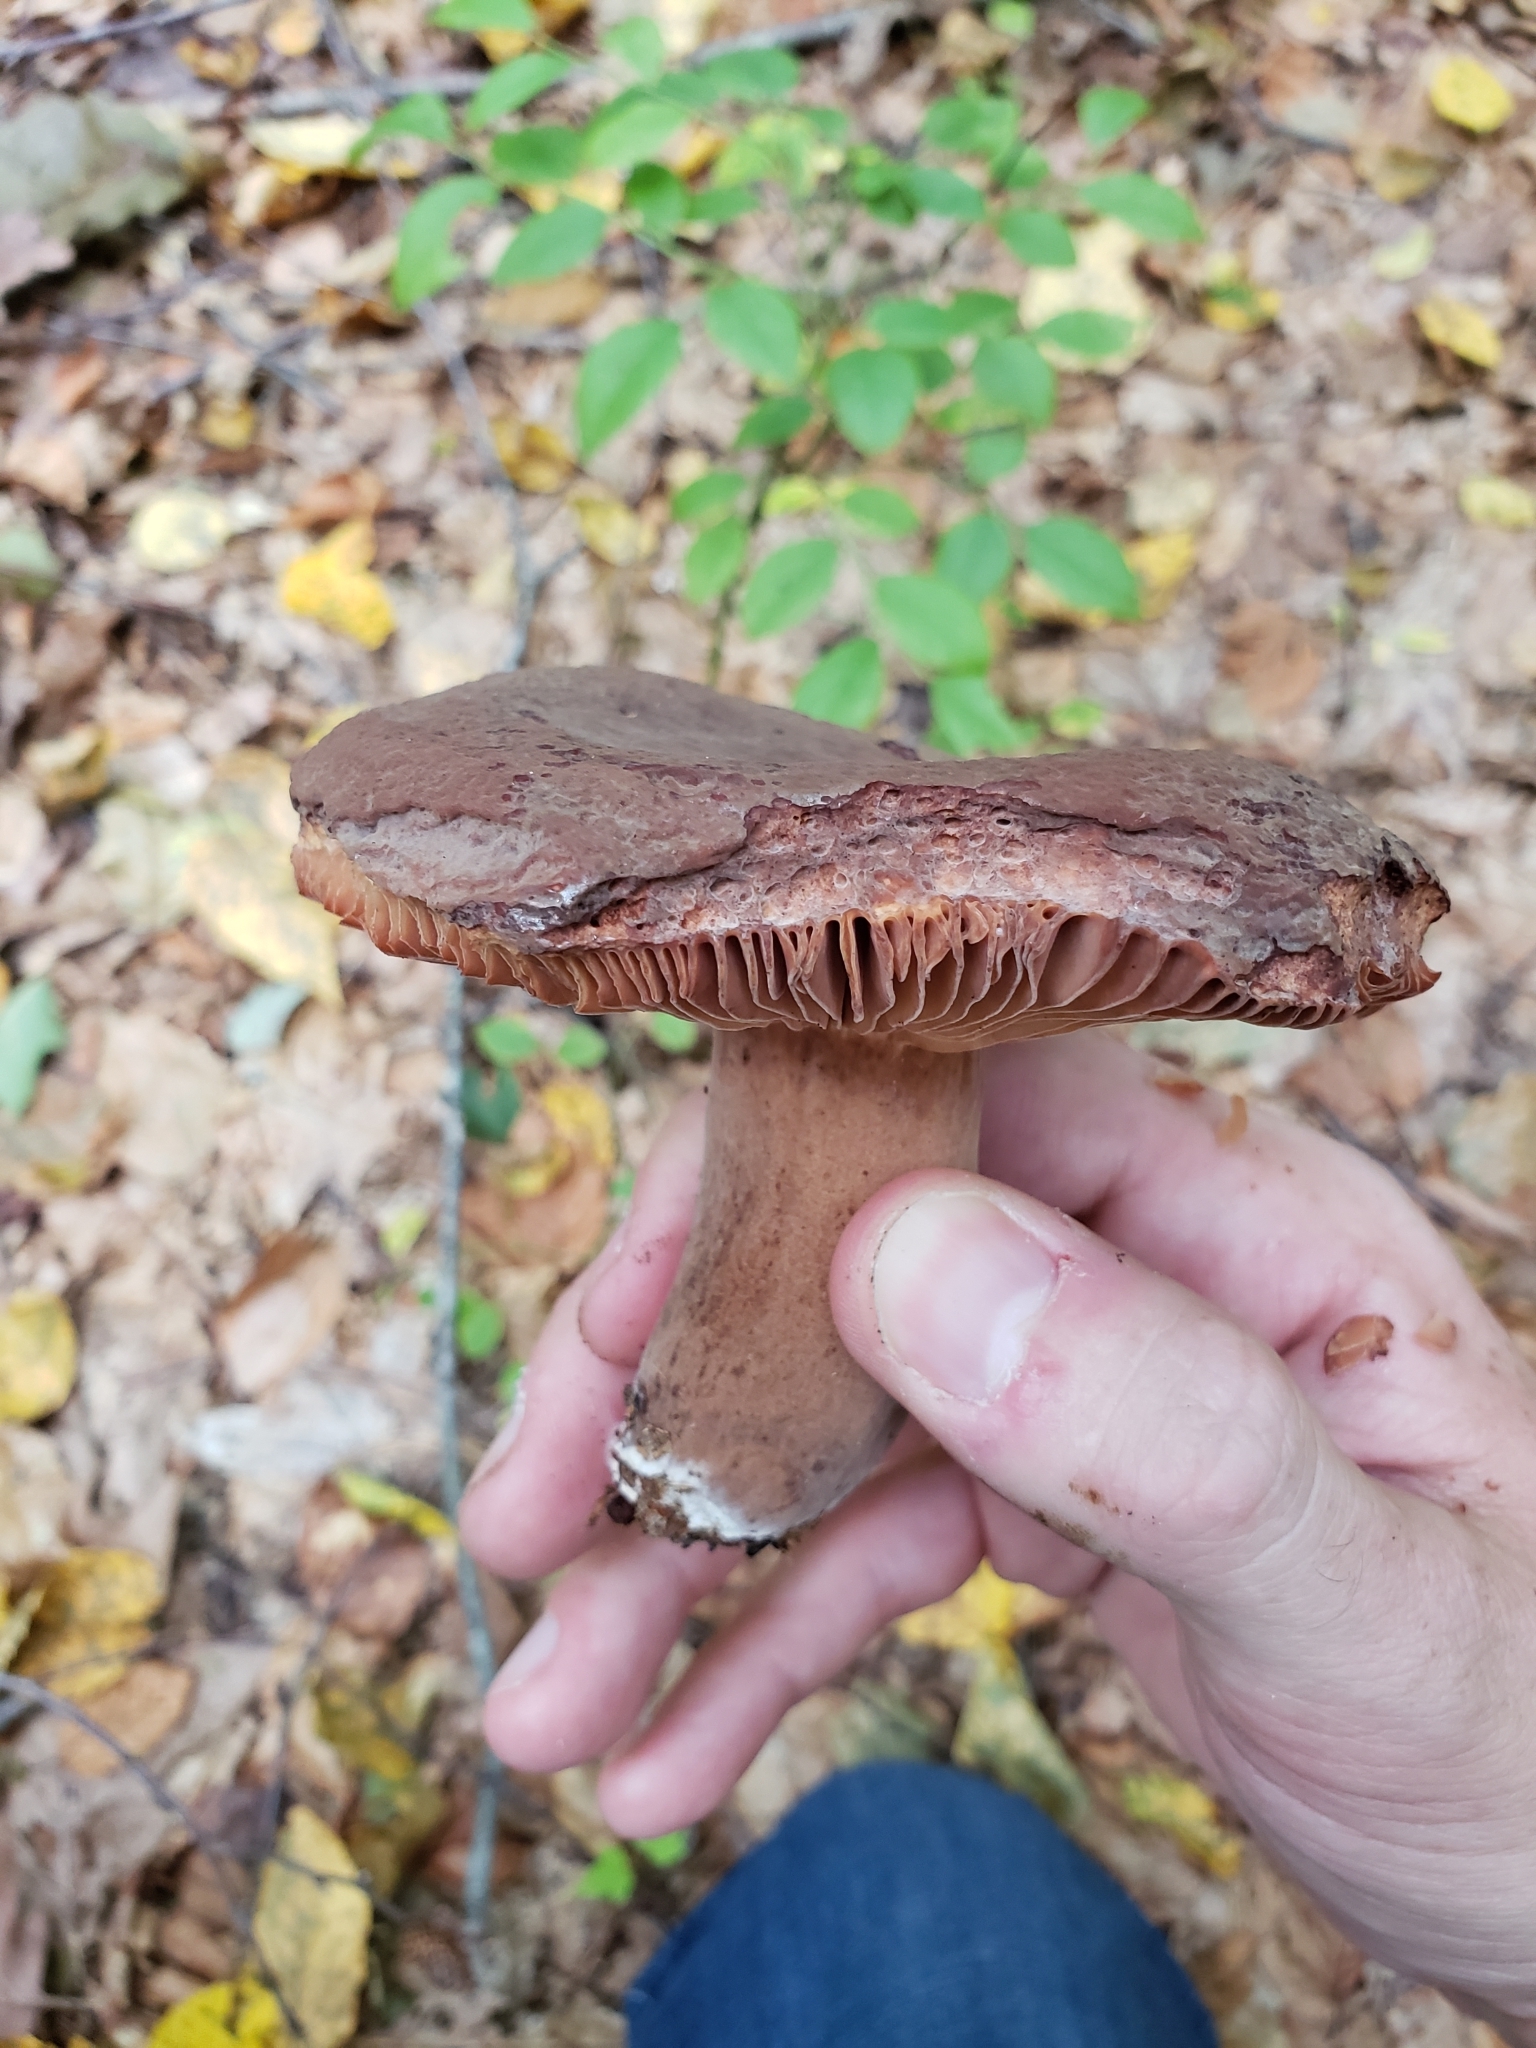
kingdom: Fungi
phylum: Basidiomycota
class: Agaricomycetes
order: Russulales
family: Russulaceae
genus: Lactarius
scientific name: Lactarius corrugis
